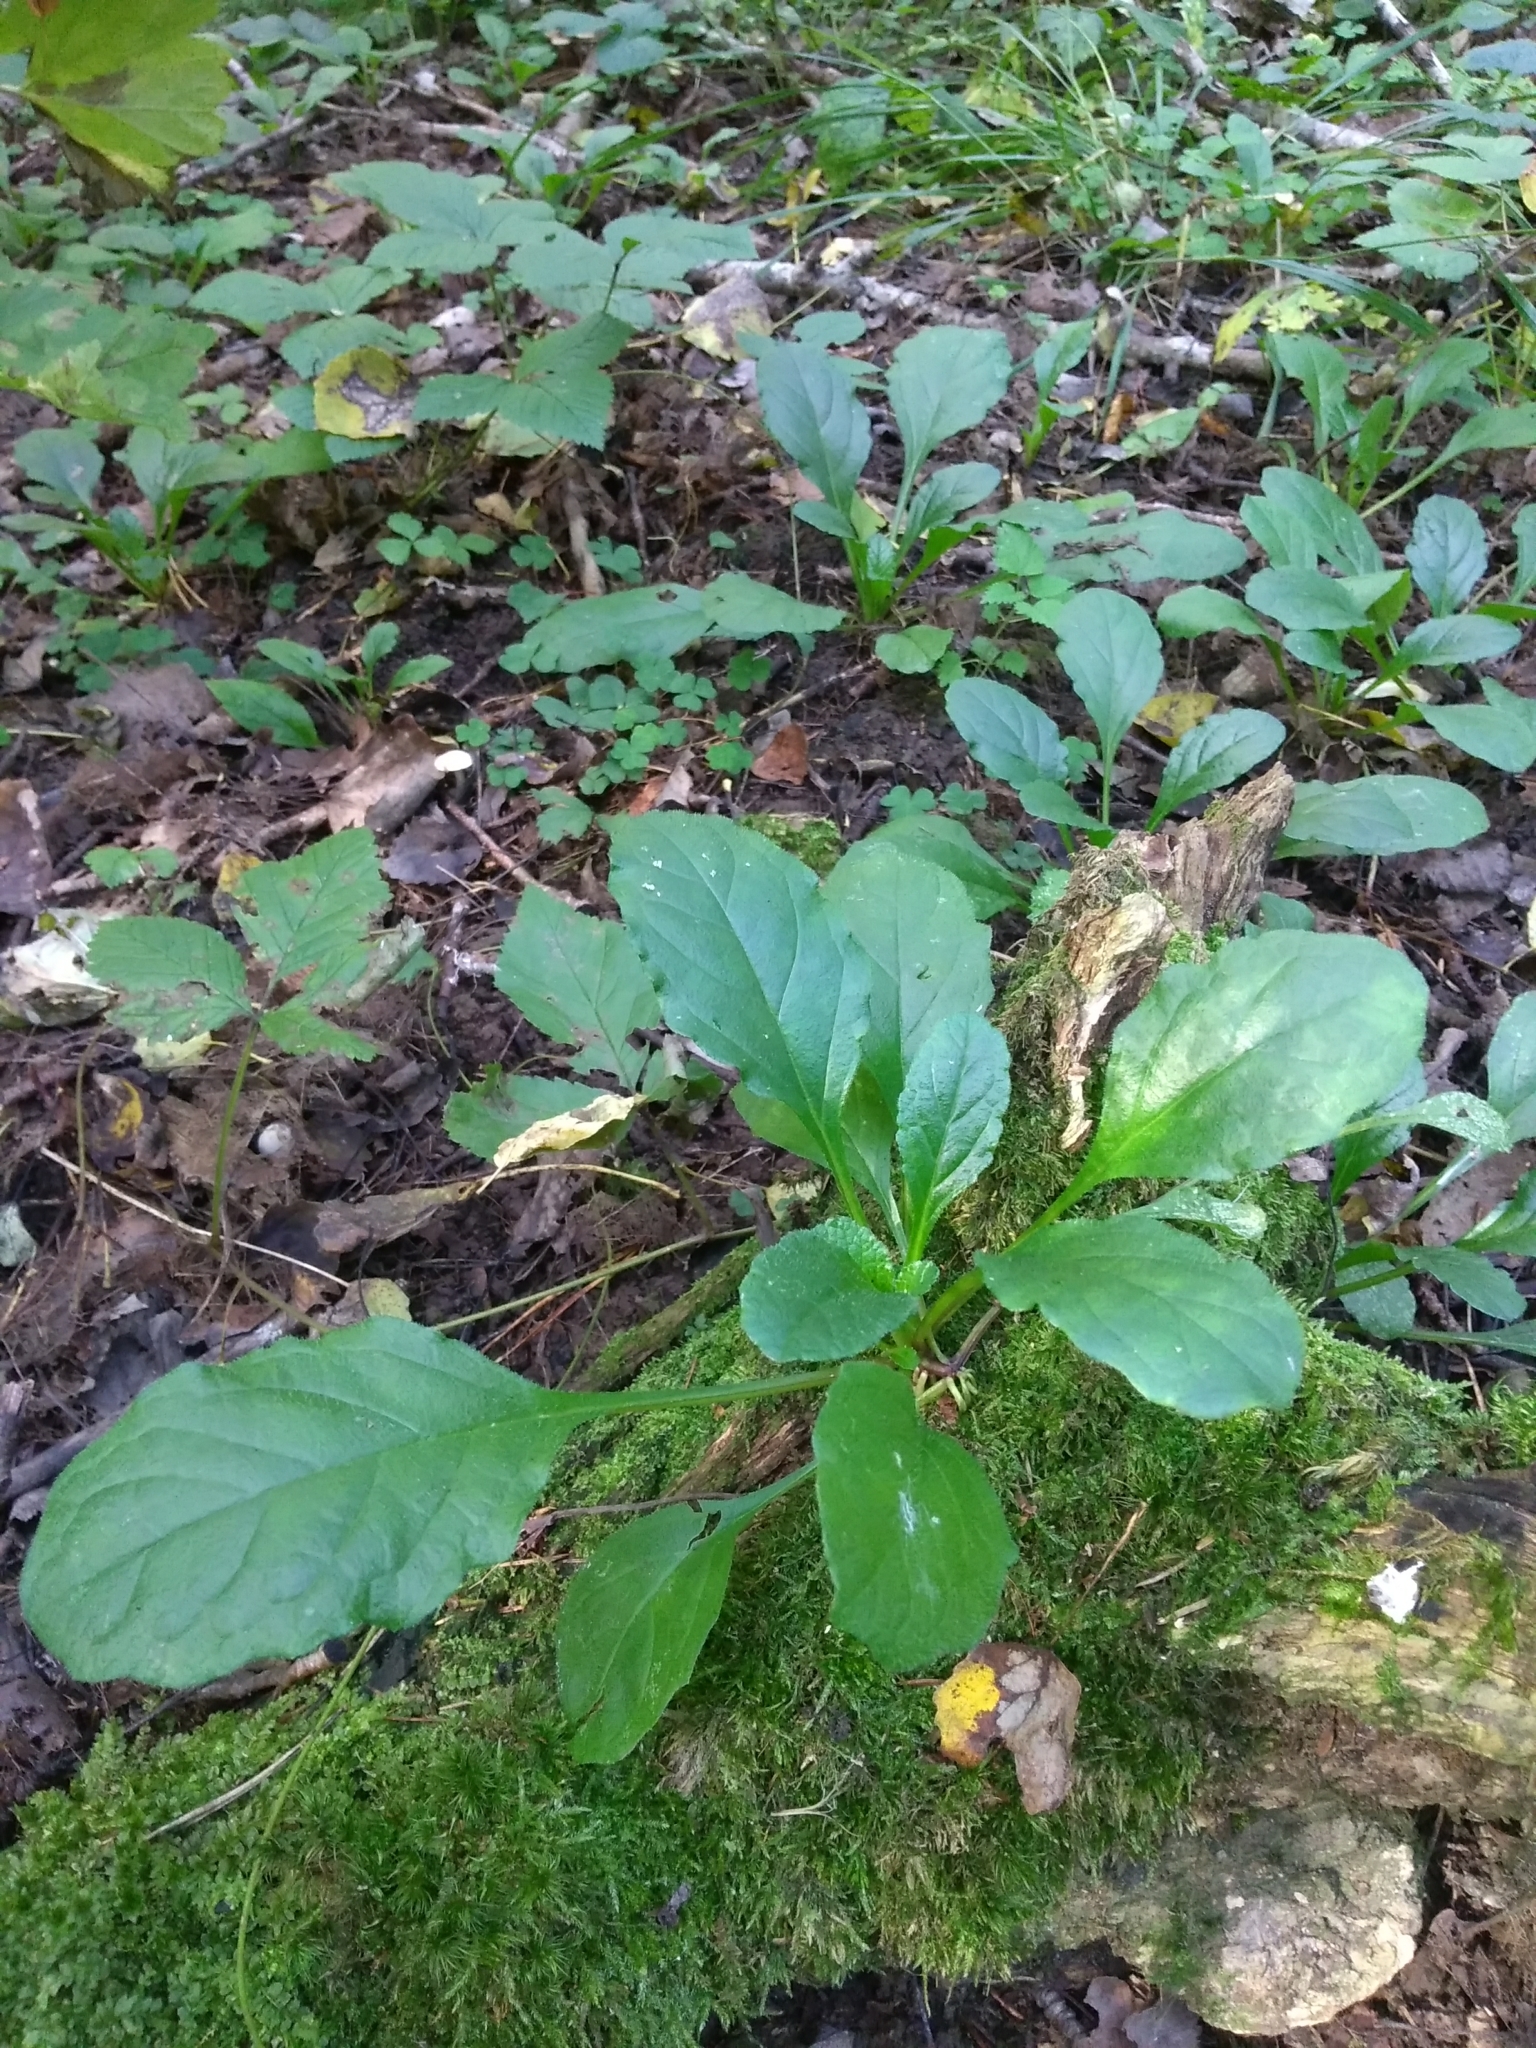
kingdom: Plantae
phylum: Tracheophyta
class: Magnoliopsida
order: Lamiales
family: Lamiaceae
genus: Ajuga
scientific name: Ajuga reptans
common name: Bugle
